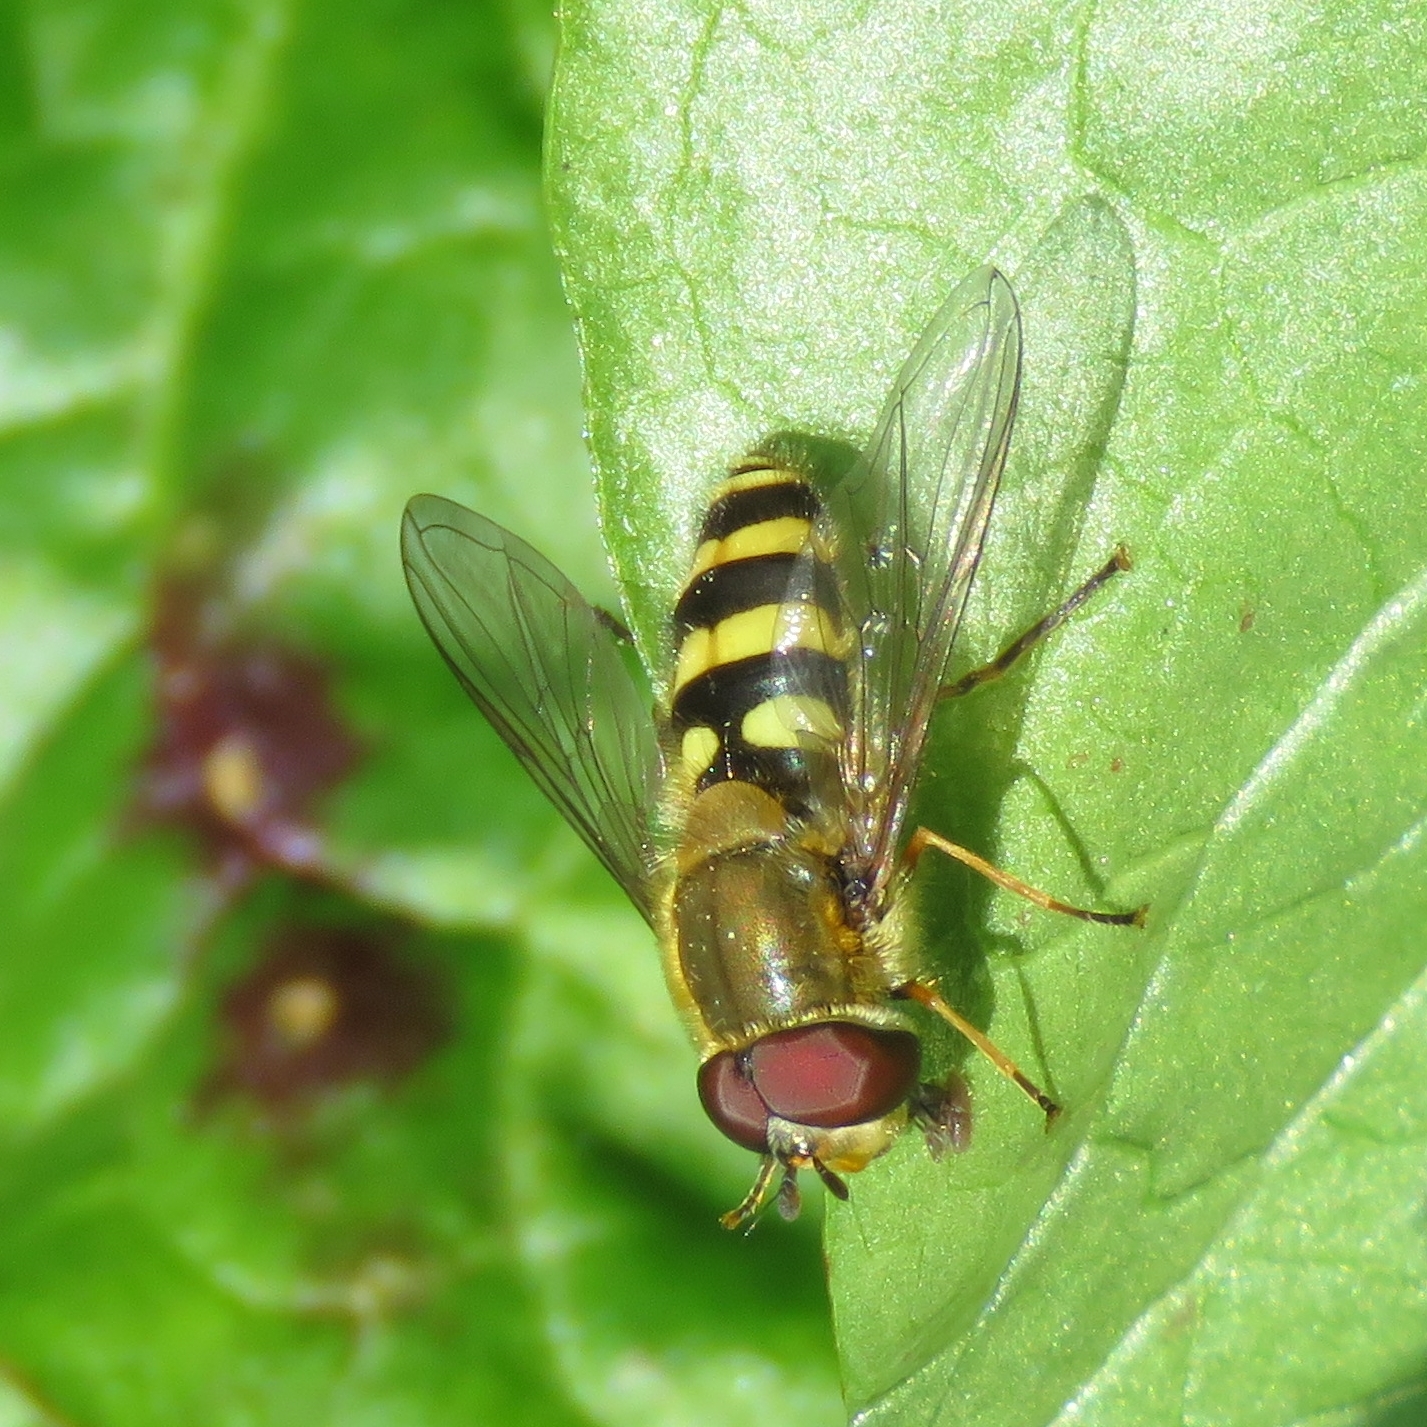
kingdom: Animalia
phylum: Arthropoda
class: Insecta
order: Diptera
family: Syrphidae
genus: Syrphus
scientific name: Syrphus
